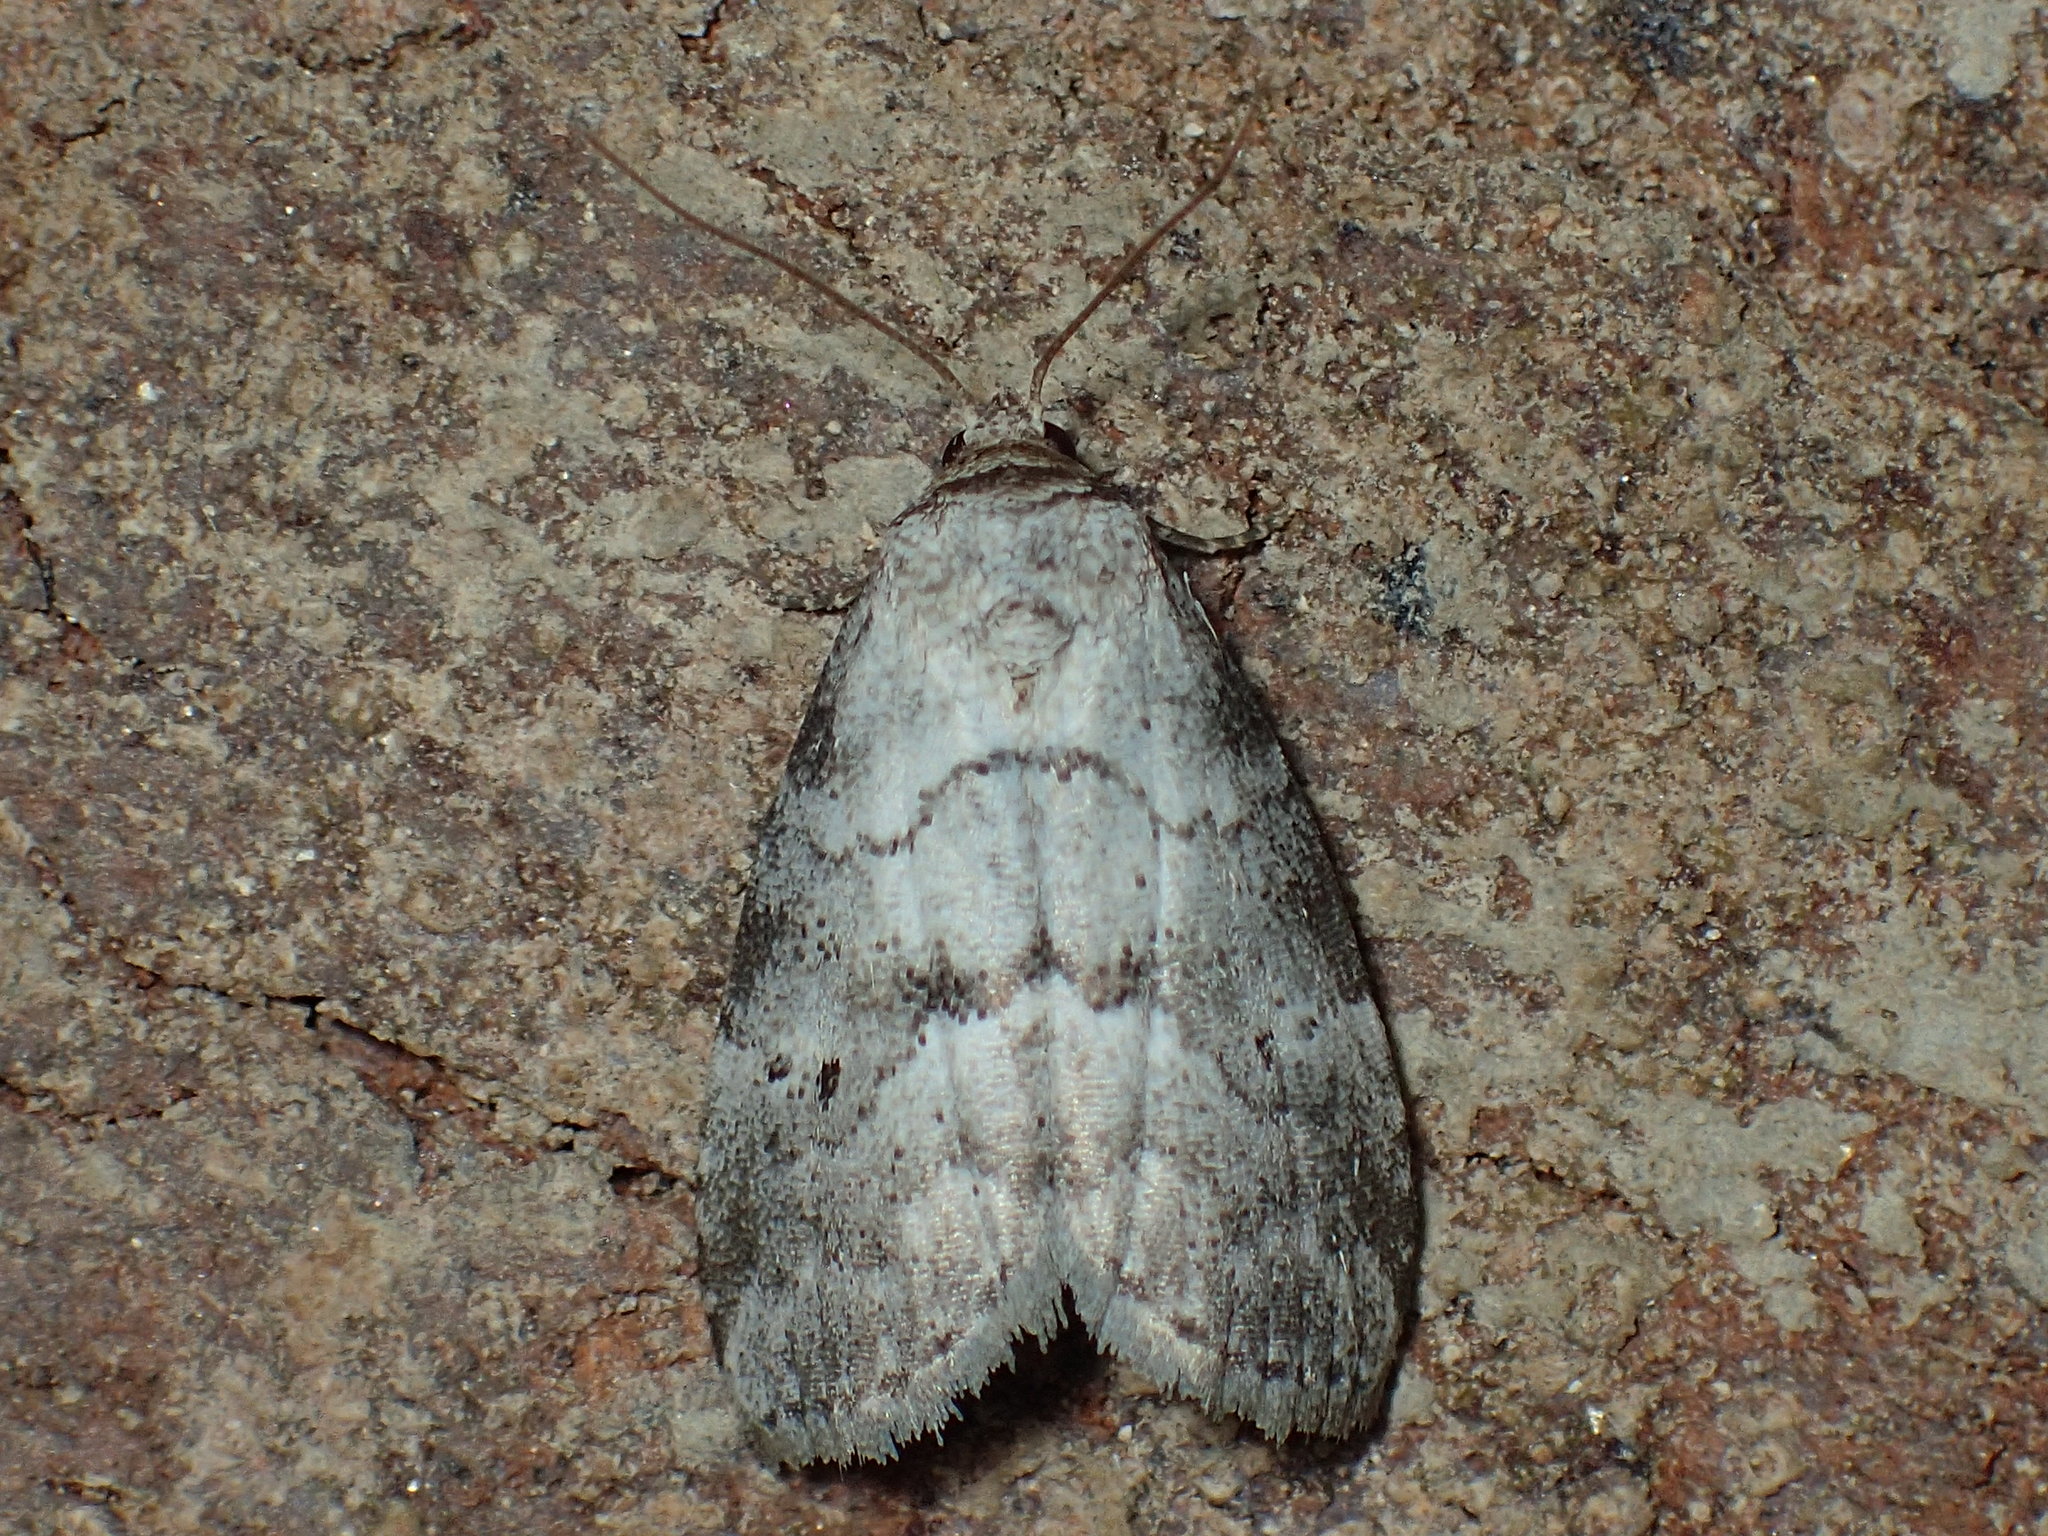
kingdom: Animalia
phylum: Arthropoda
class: Insecta
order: Lepidoptera
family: Erebidae
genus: Hyperstrotia
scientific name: Hyperstrotia pervertens
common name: Dotted graylet
